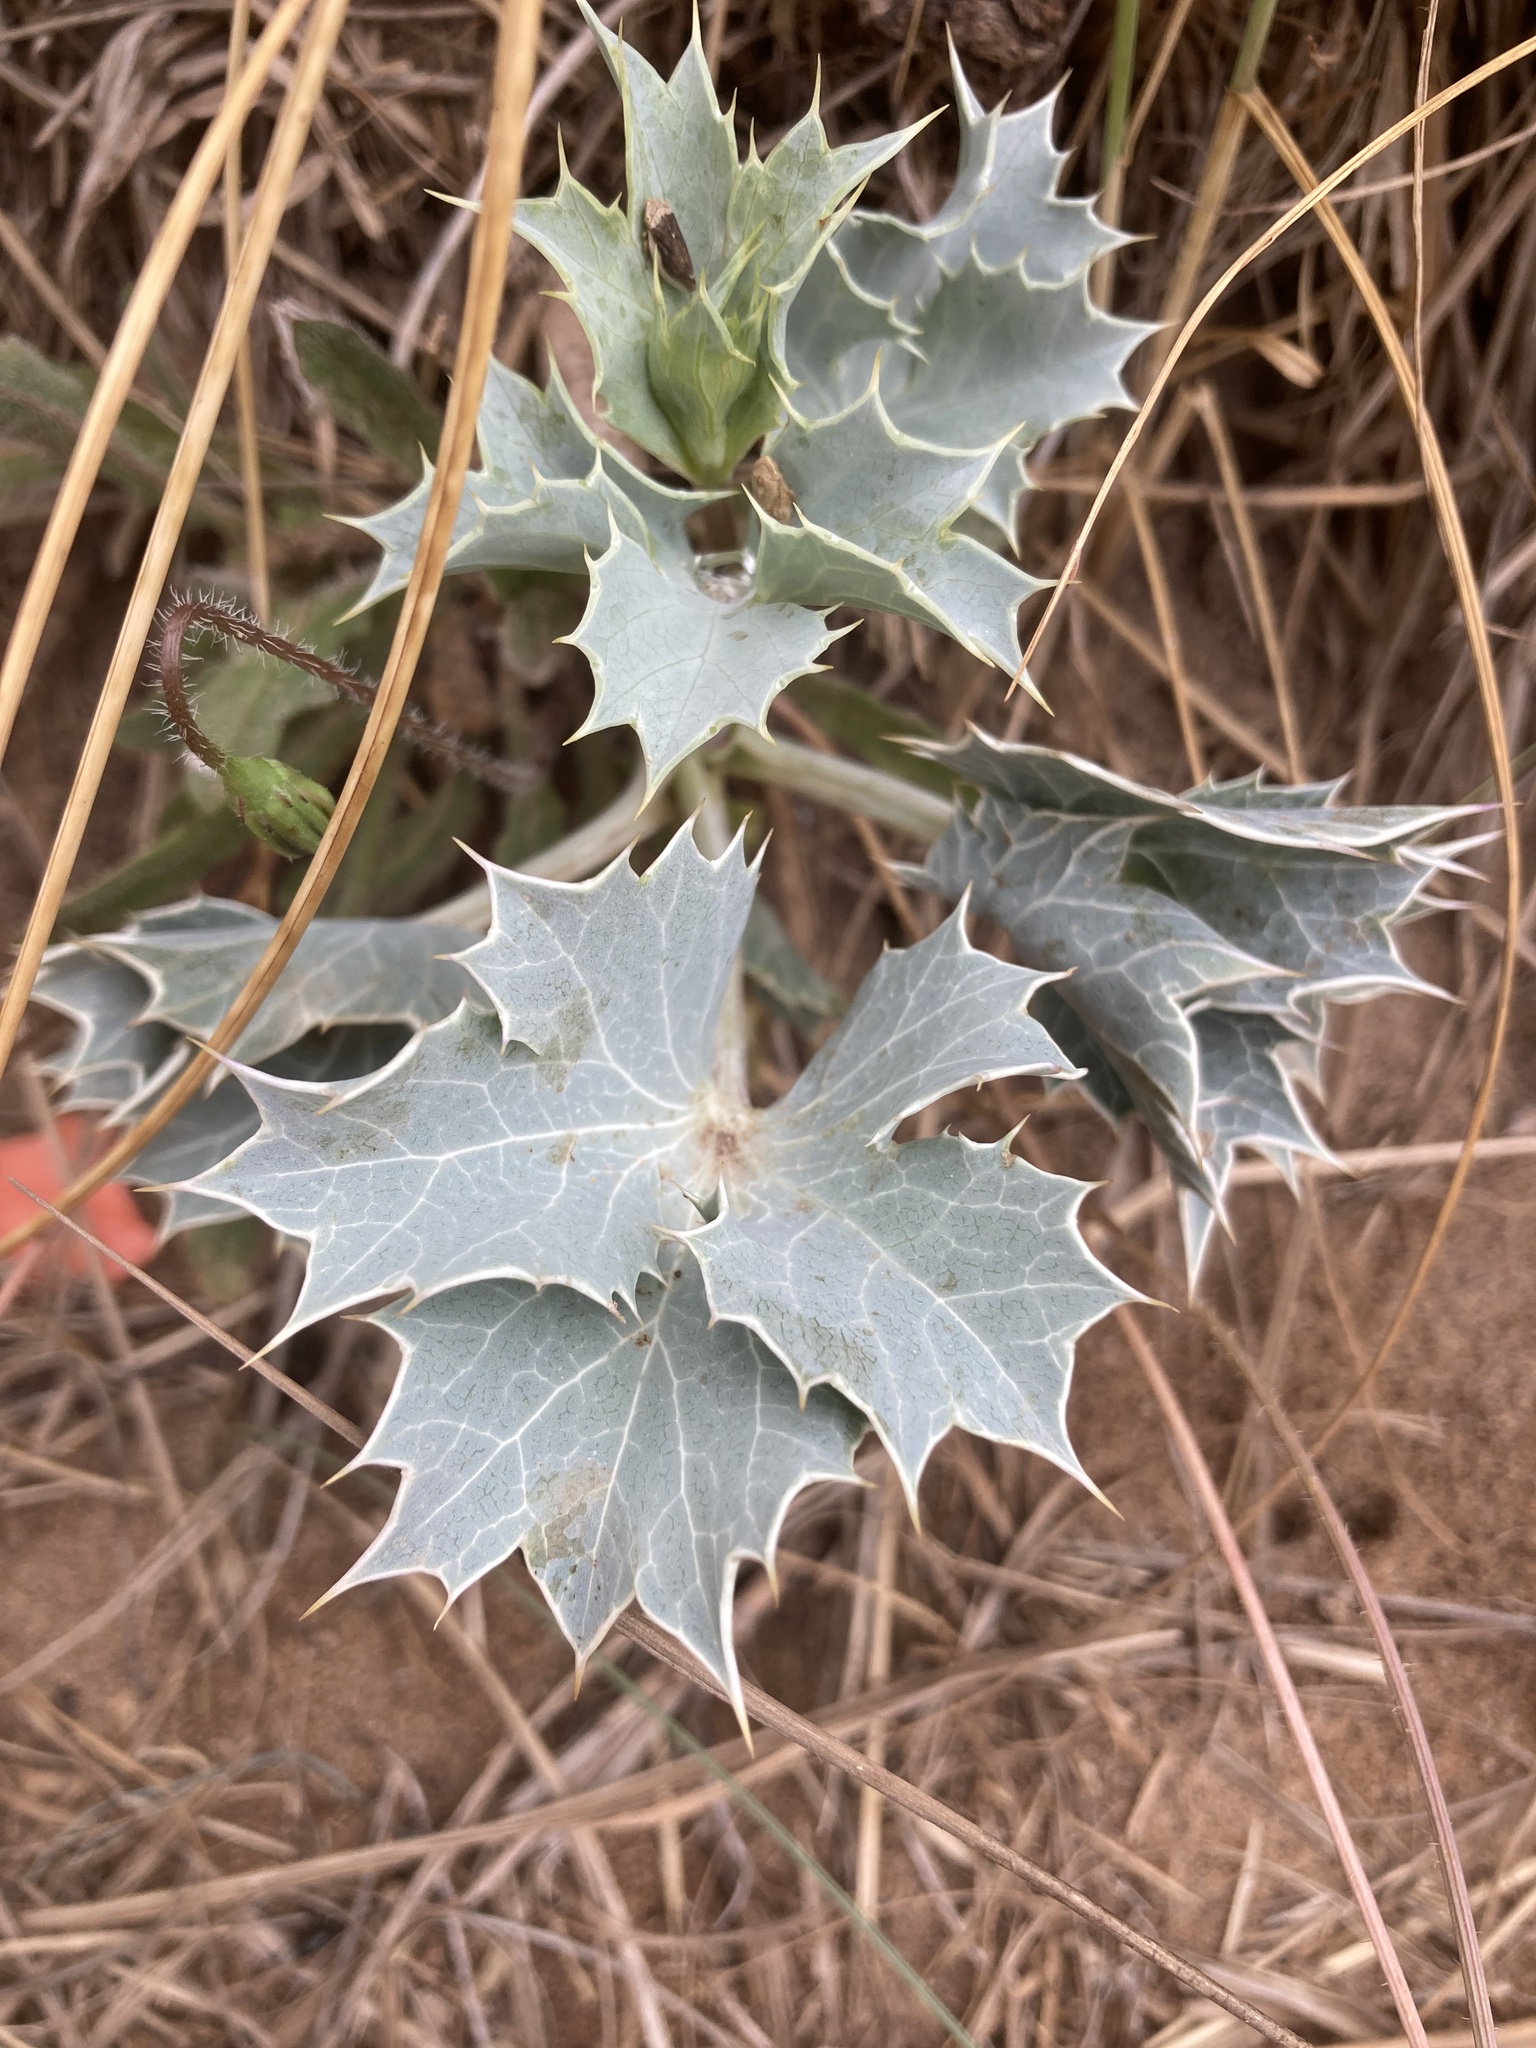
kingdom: Plantae
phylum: Tracheophyta
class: Magnoliopsida
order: Apiales
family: Apiaceae
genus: Eryngium
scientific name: Eryngium maritimum
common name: Sea-holly
